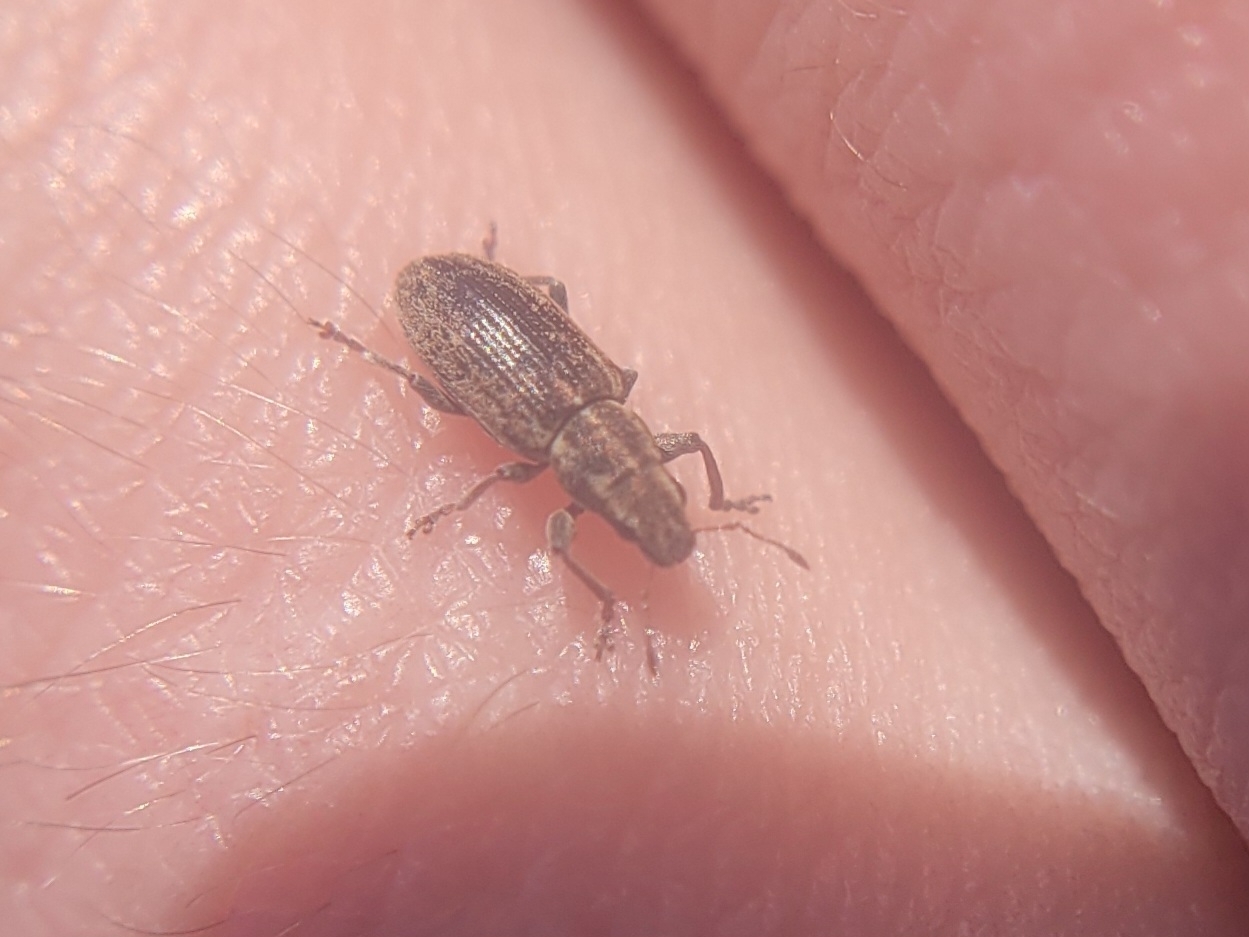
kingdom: Animalia
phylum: Arthropoda
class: Insecta
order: Coleoptera
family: Curculionidae
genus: Sitona
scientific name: Sitona lineatus
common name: Weevil
